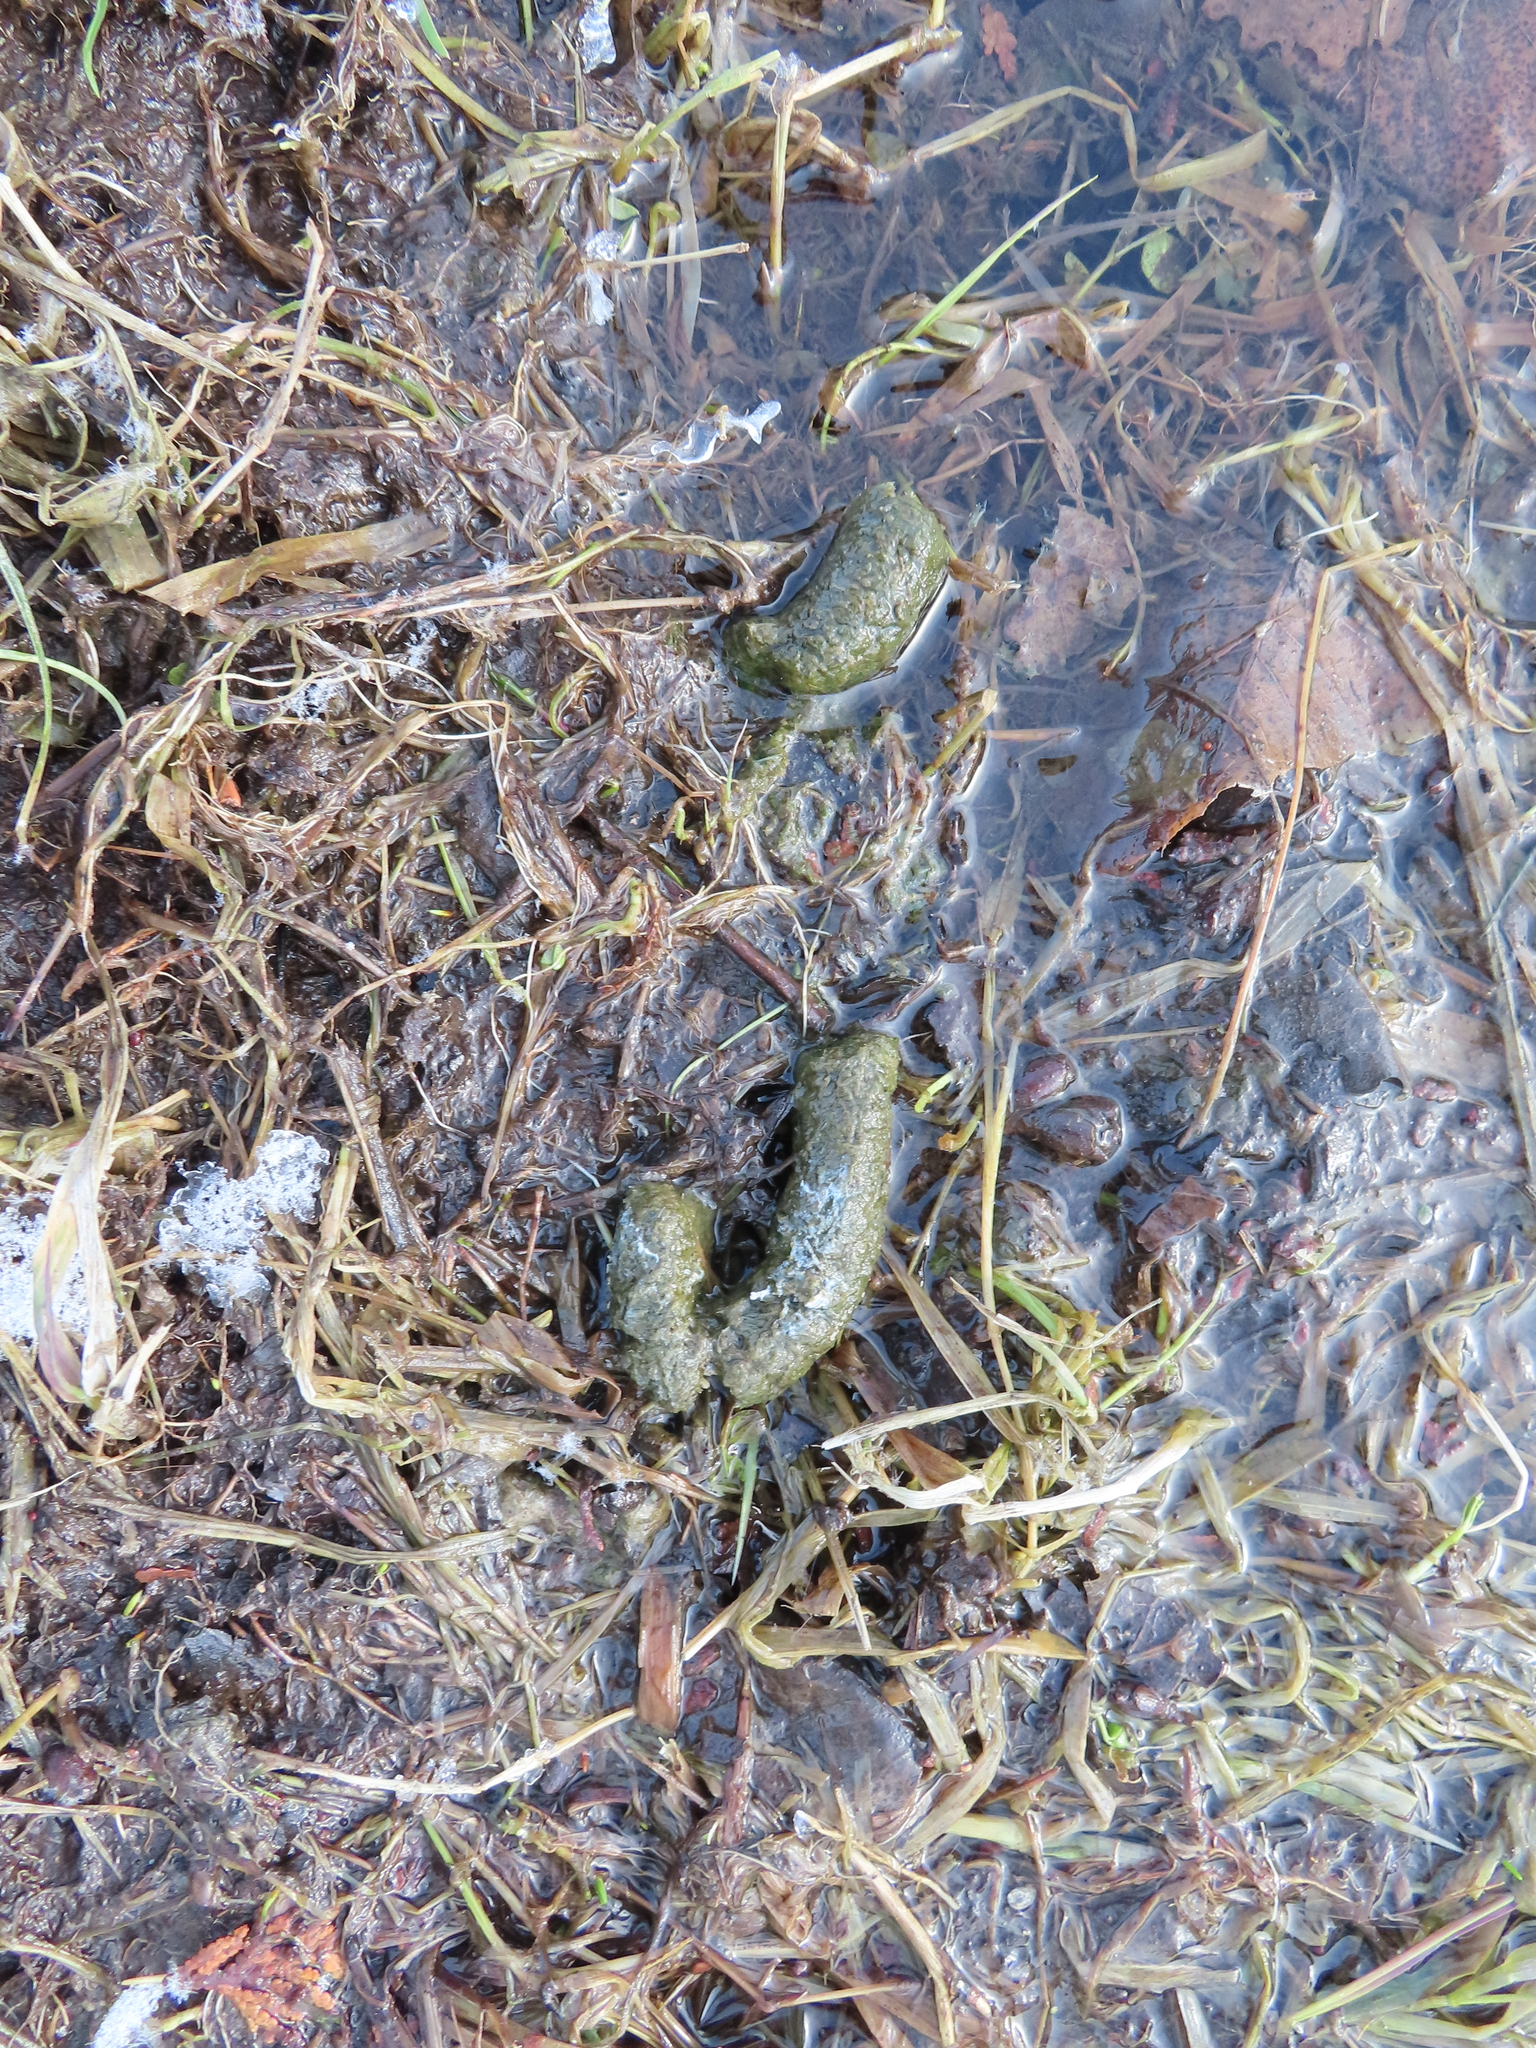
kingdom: Animalia
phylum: Chordata
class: Aves
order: Anseriformes
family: Anatidae
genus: Branta
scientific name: Branta canadensis
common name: Canada goose
